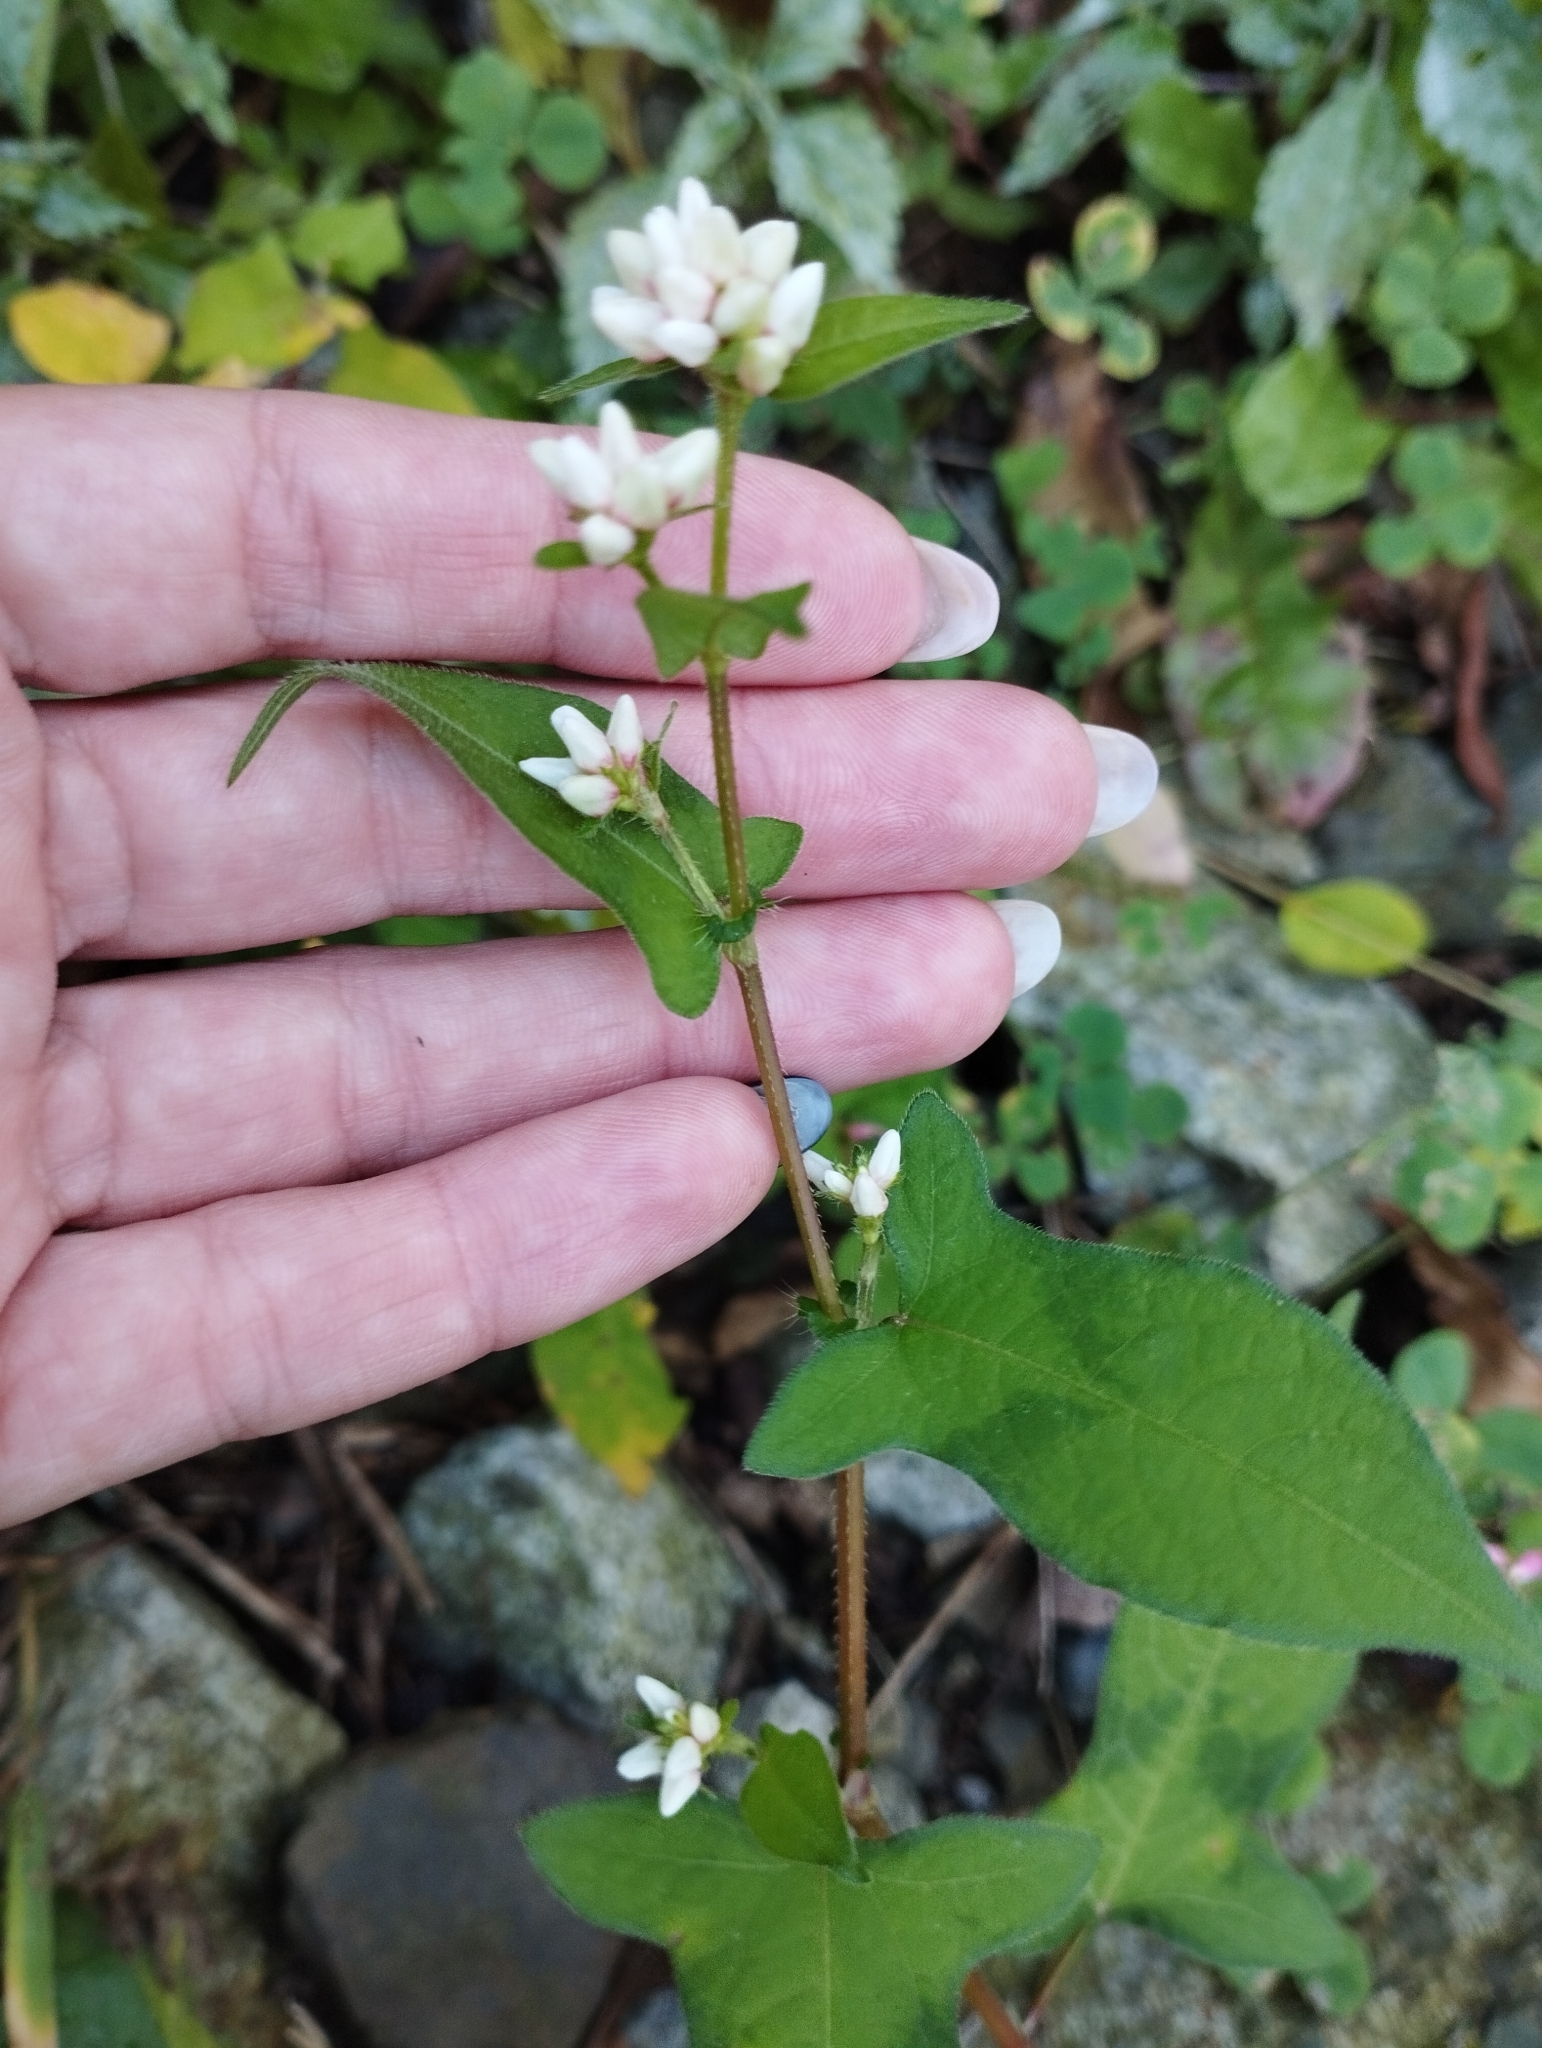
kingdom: Plantae
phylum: Tracheophyta
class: Magnoliopsida
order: Caryophyllales
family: Polygonaceae
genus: Persicaria
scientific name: Persicaria thunbergii
